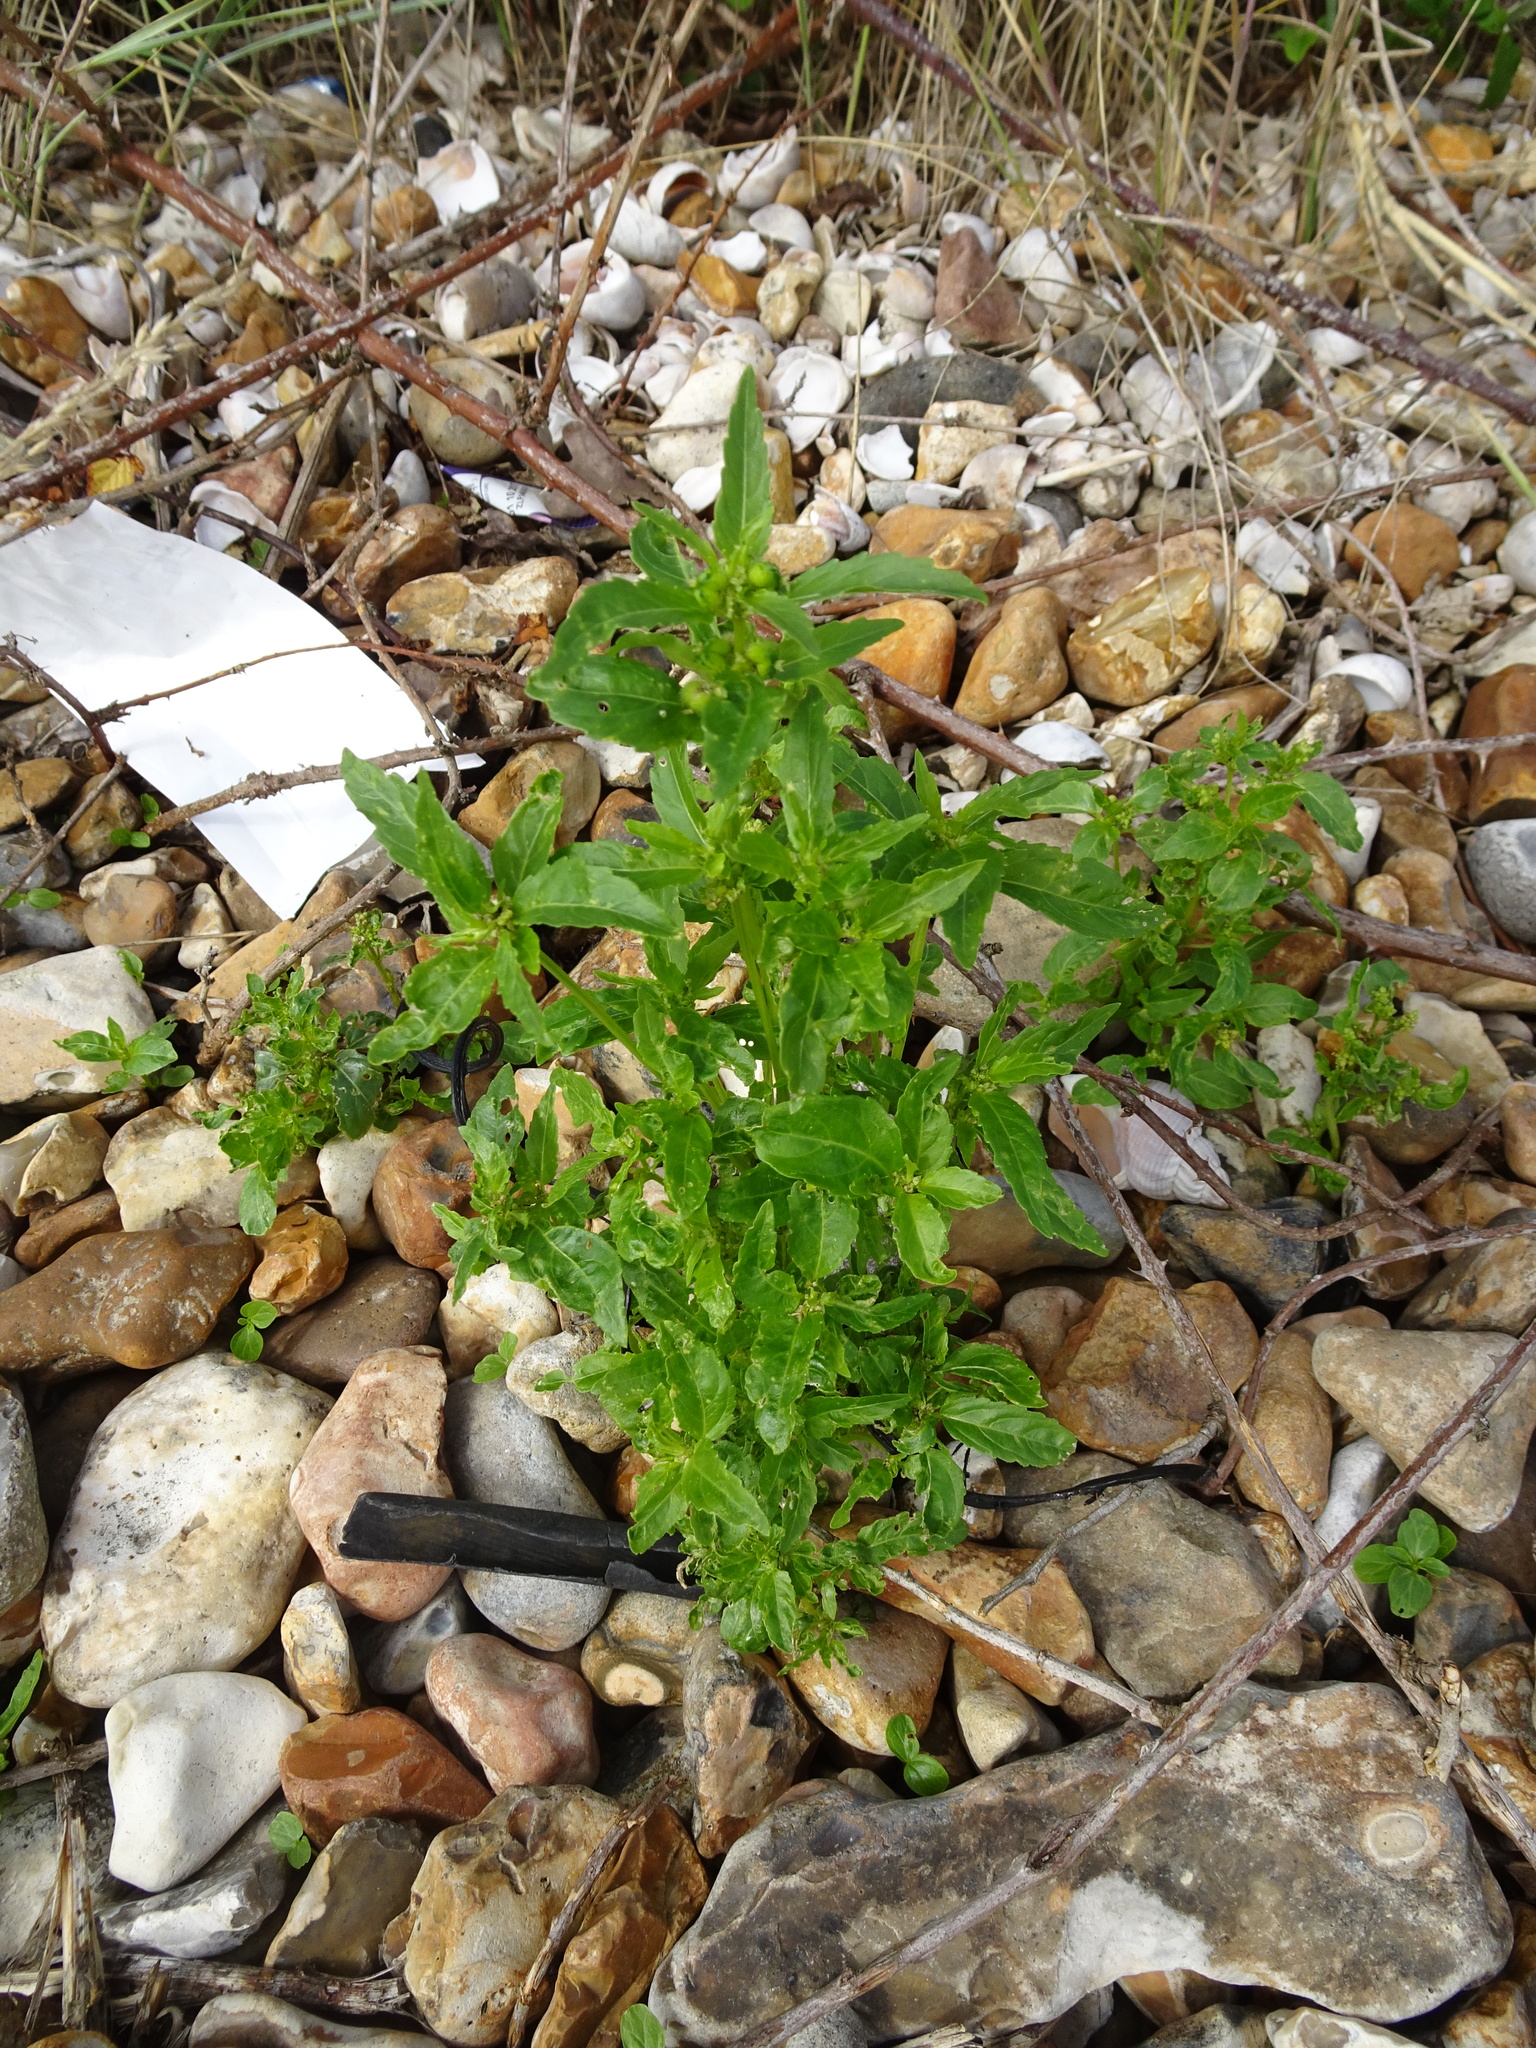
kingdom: Plantae
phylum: Tracheophyta
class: Magnoliopsida
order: Malpighiales
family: Euphorbiaceae
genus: Mercurialis
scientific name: Mercurialis annua
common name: Annual mercury
